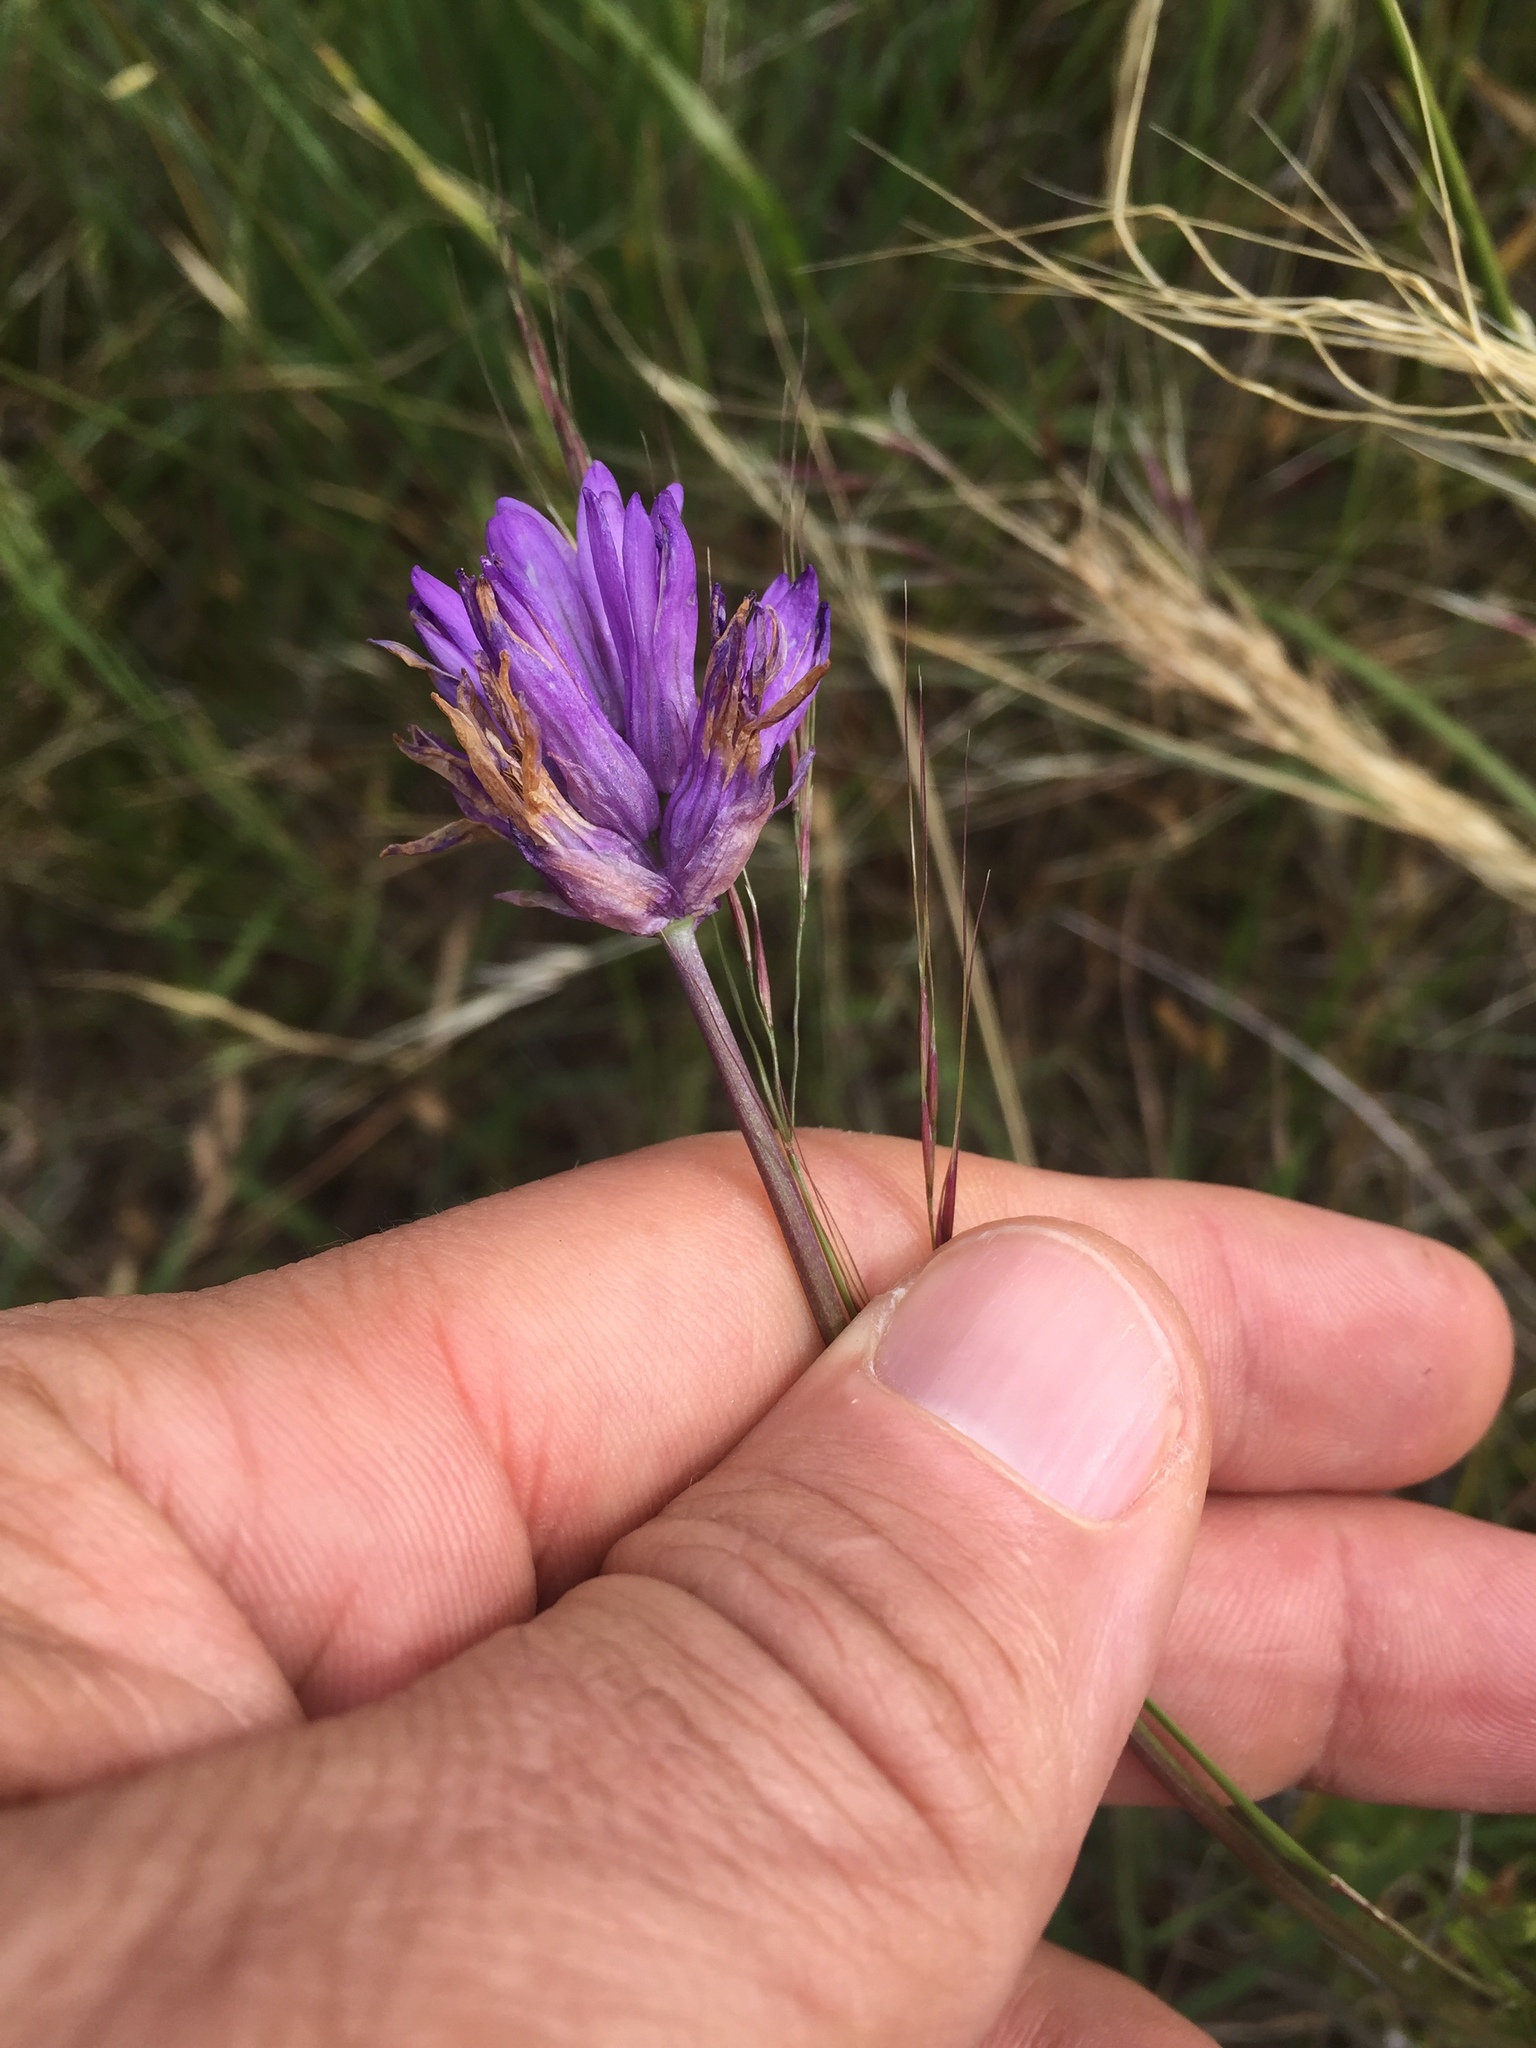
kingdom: Plantae
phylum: Tracheophyta
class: Liliopsida
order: Asparagales
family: Asparagaceae
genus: Dichelostemma
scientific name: Dichelostemma congestum
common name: Fork-tooth ookow
